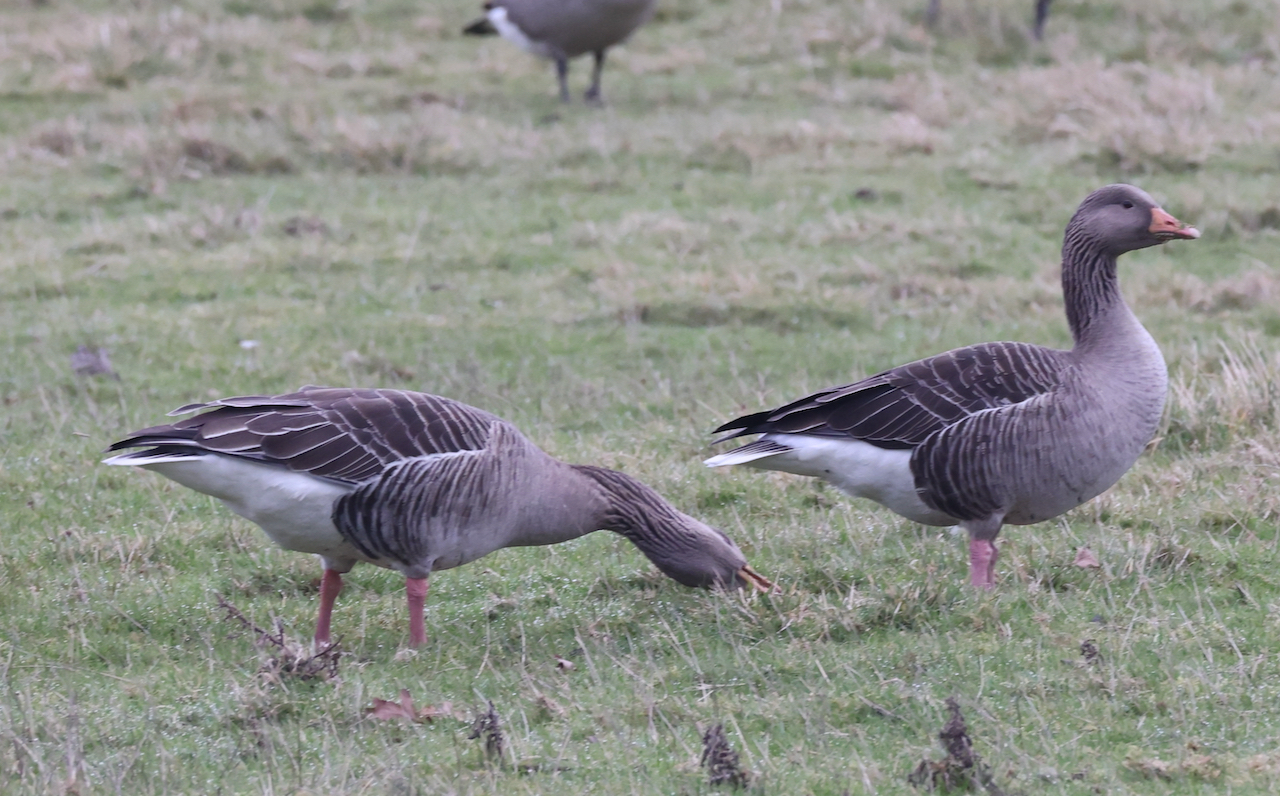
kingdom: Animalia
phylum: Chordata
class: Aves
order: Anseriformes
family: Anatidae
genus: Anser
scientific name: Anser anser
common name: Greylag goose
